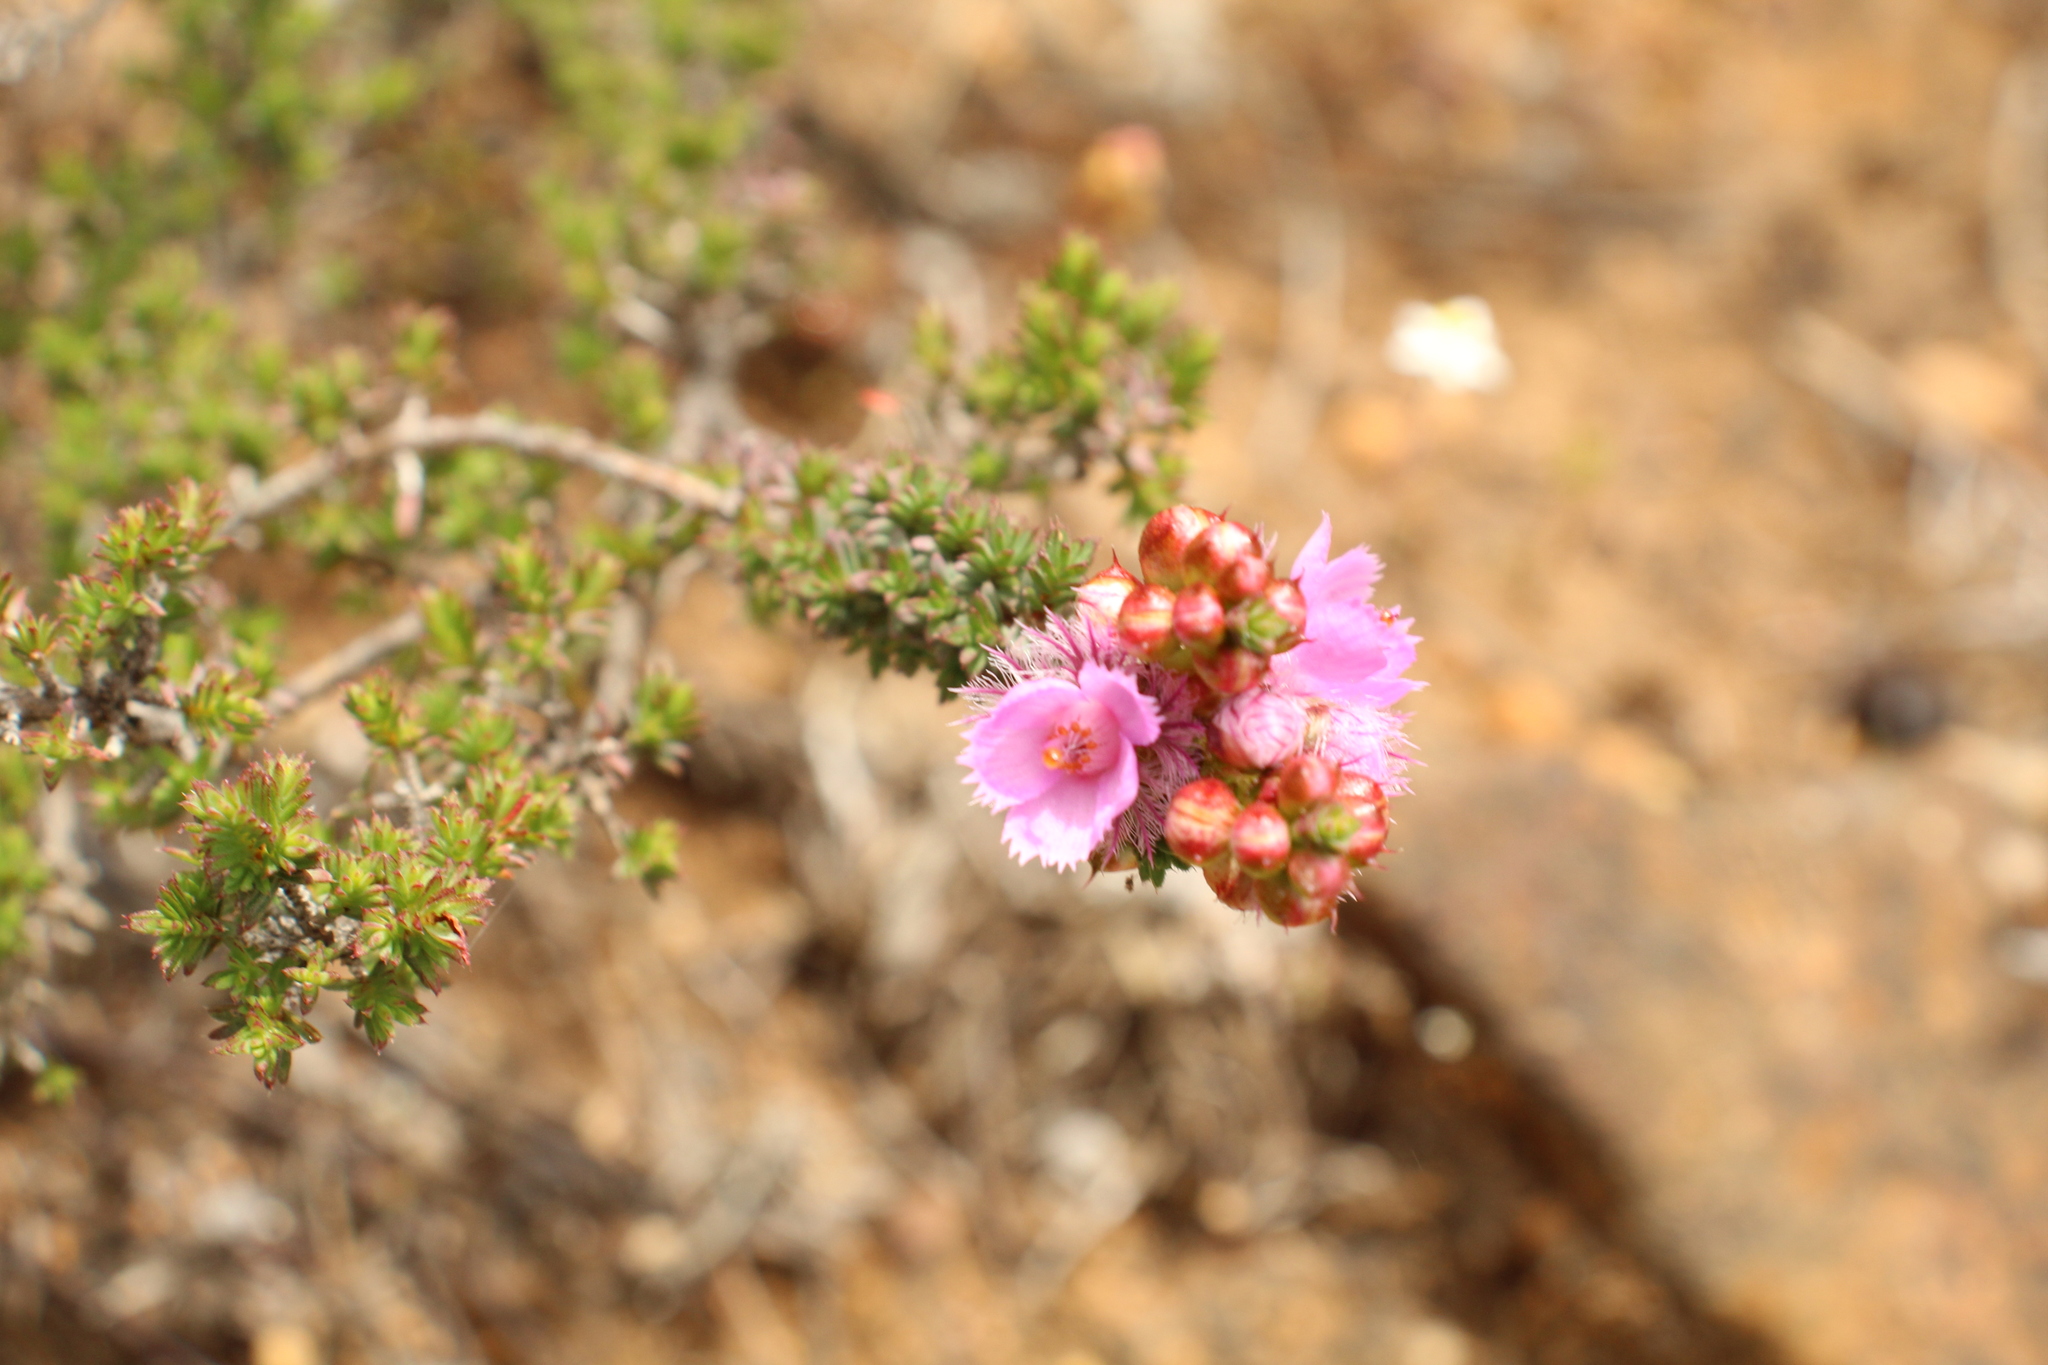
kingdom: Plantae
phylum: Tracheophyta
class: Magnoliopsida
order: Myrtales
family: Myrtaceae
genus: Verticordia
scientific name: Verticordia pennigera
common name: Native-tea
